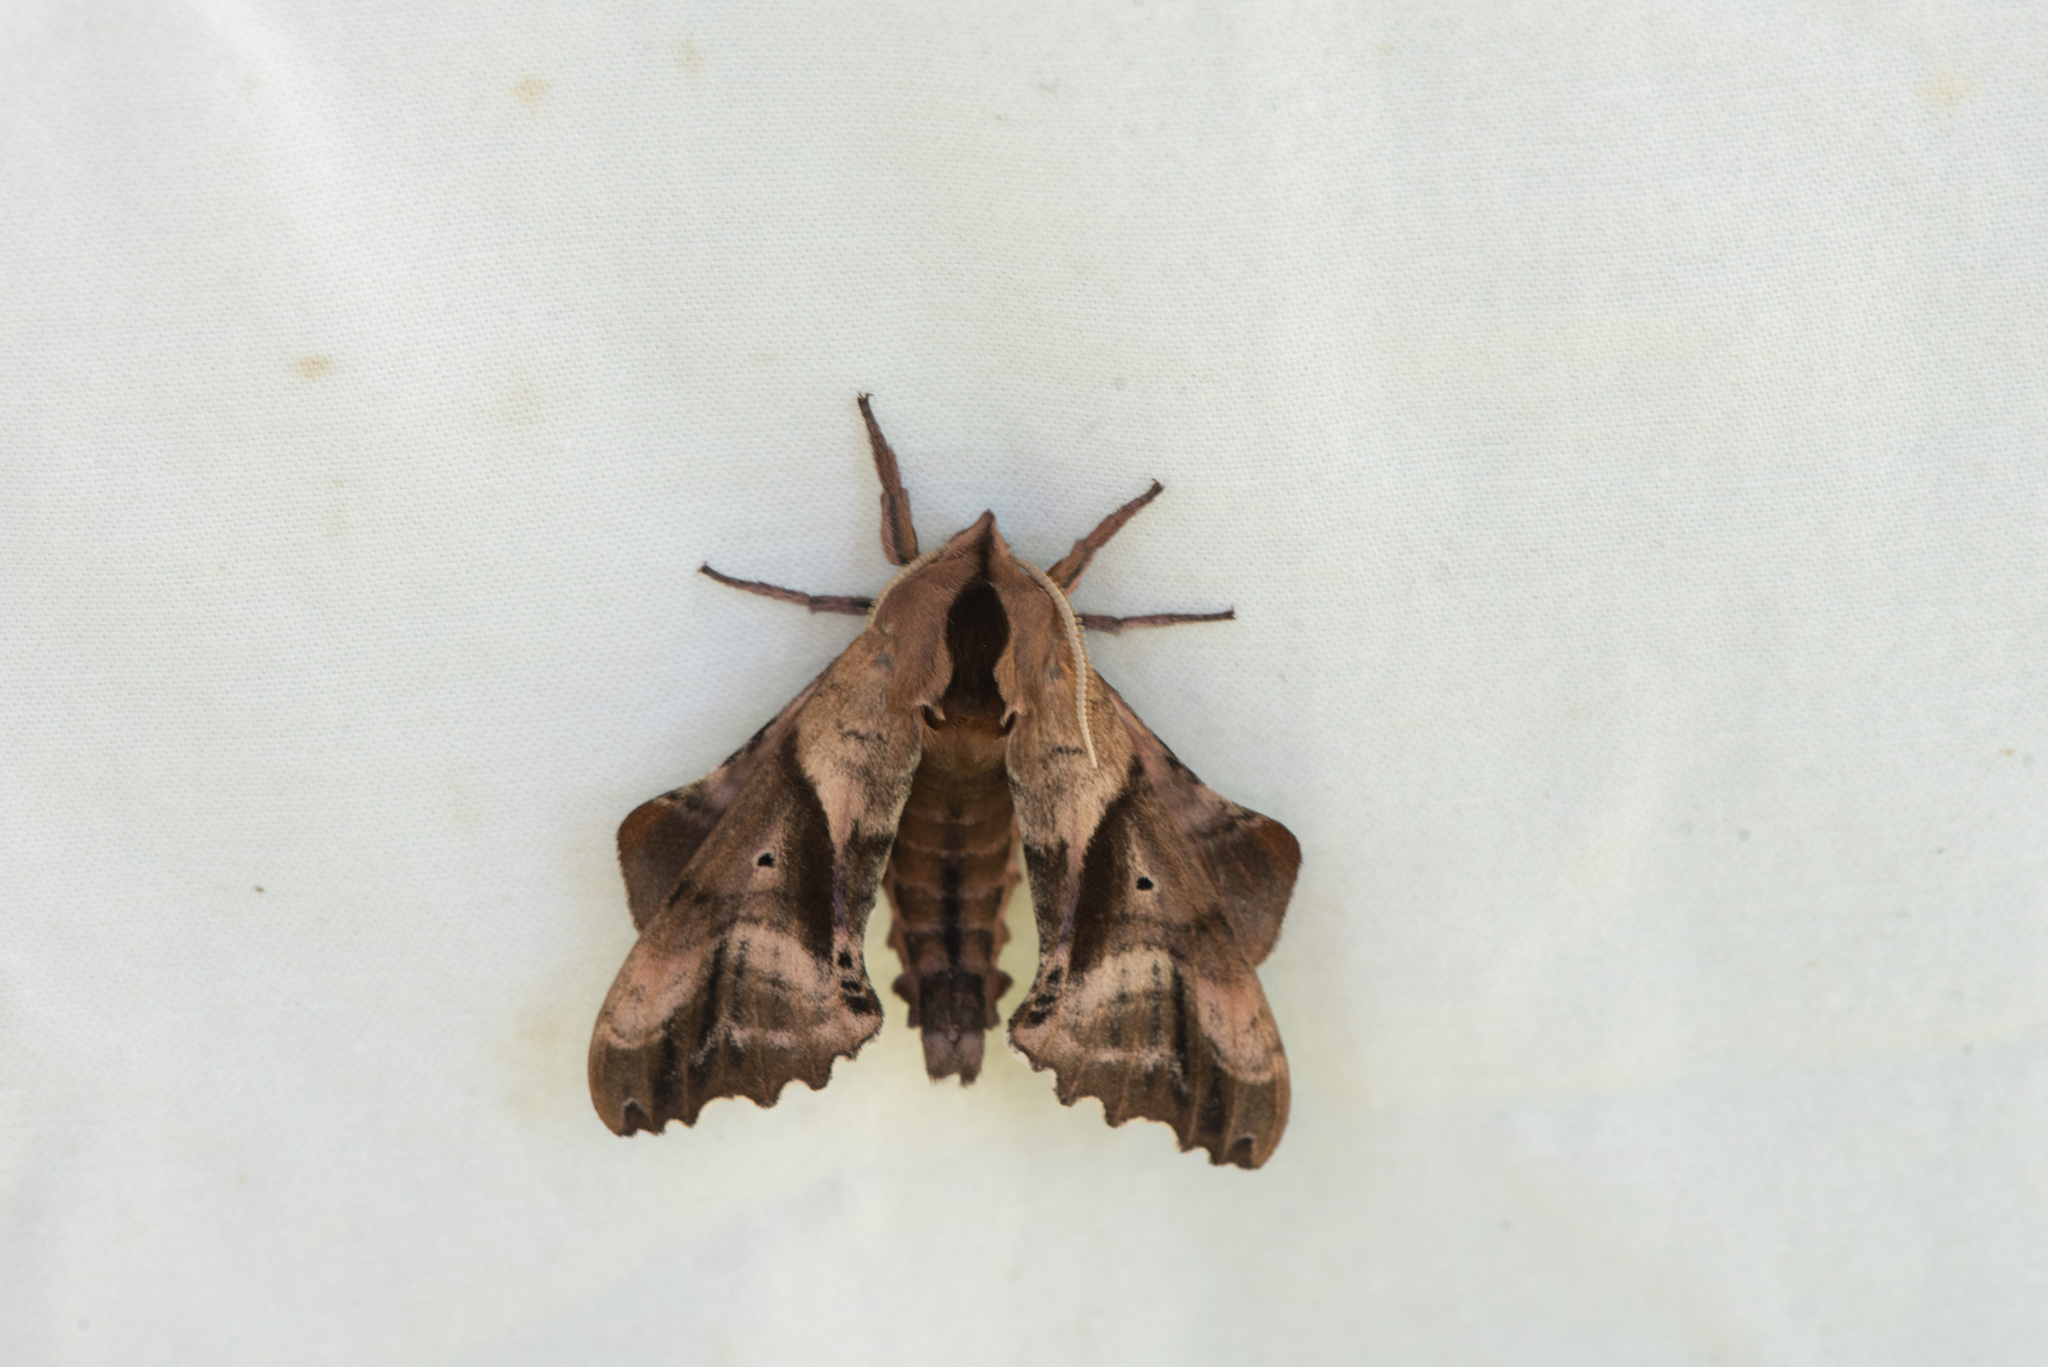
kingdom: Animalia
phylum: Arthropoda
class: Insecta
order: Lepidoptera
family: Sphingidae
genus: Paonias
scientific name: Paonias excaecata
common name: Blind-eyed sphinx
